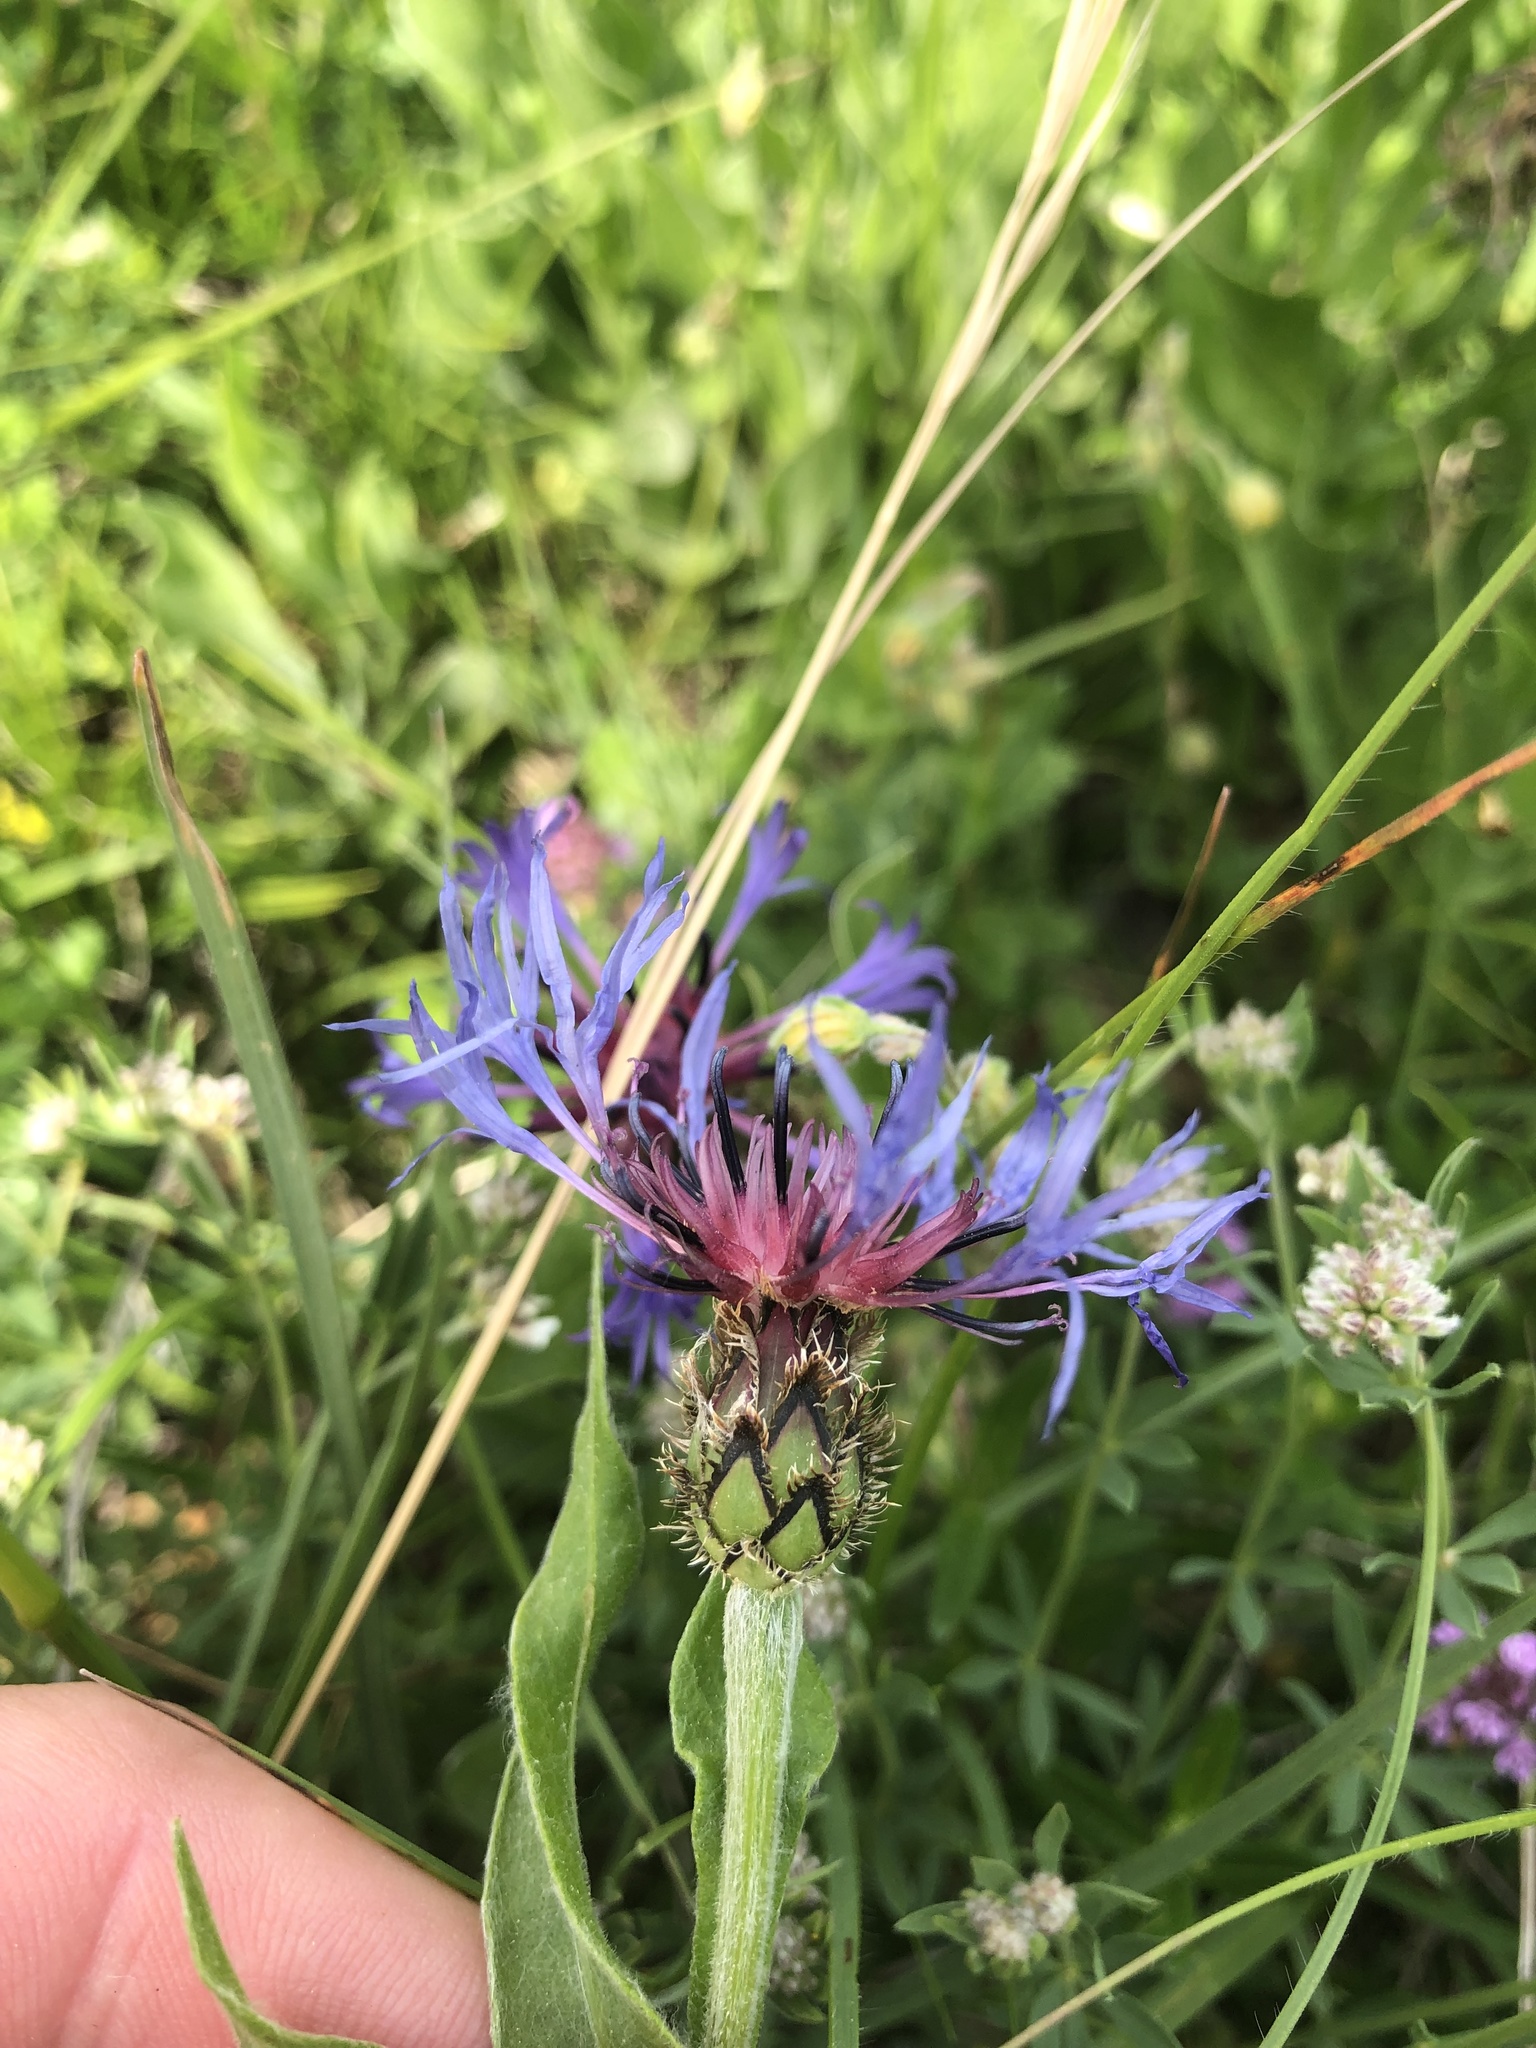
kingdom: Plantae
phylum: Tracheophyta
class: Magnoliopsida
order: Asterales
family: Asteraceae
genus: Centaurea
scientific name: Centaurea triumfettii
